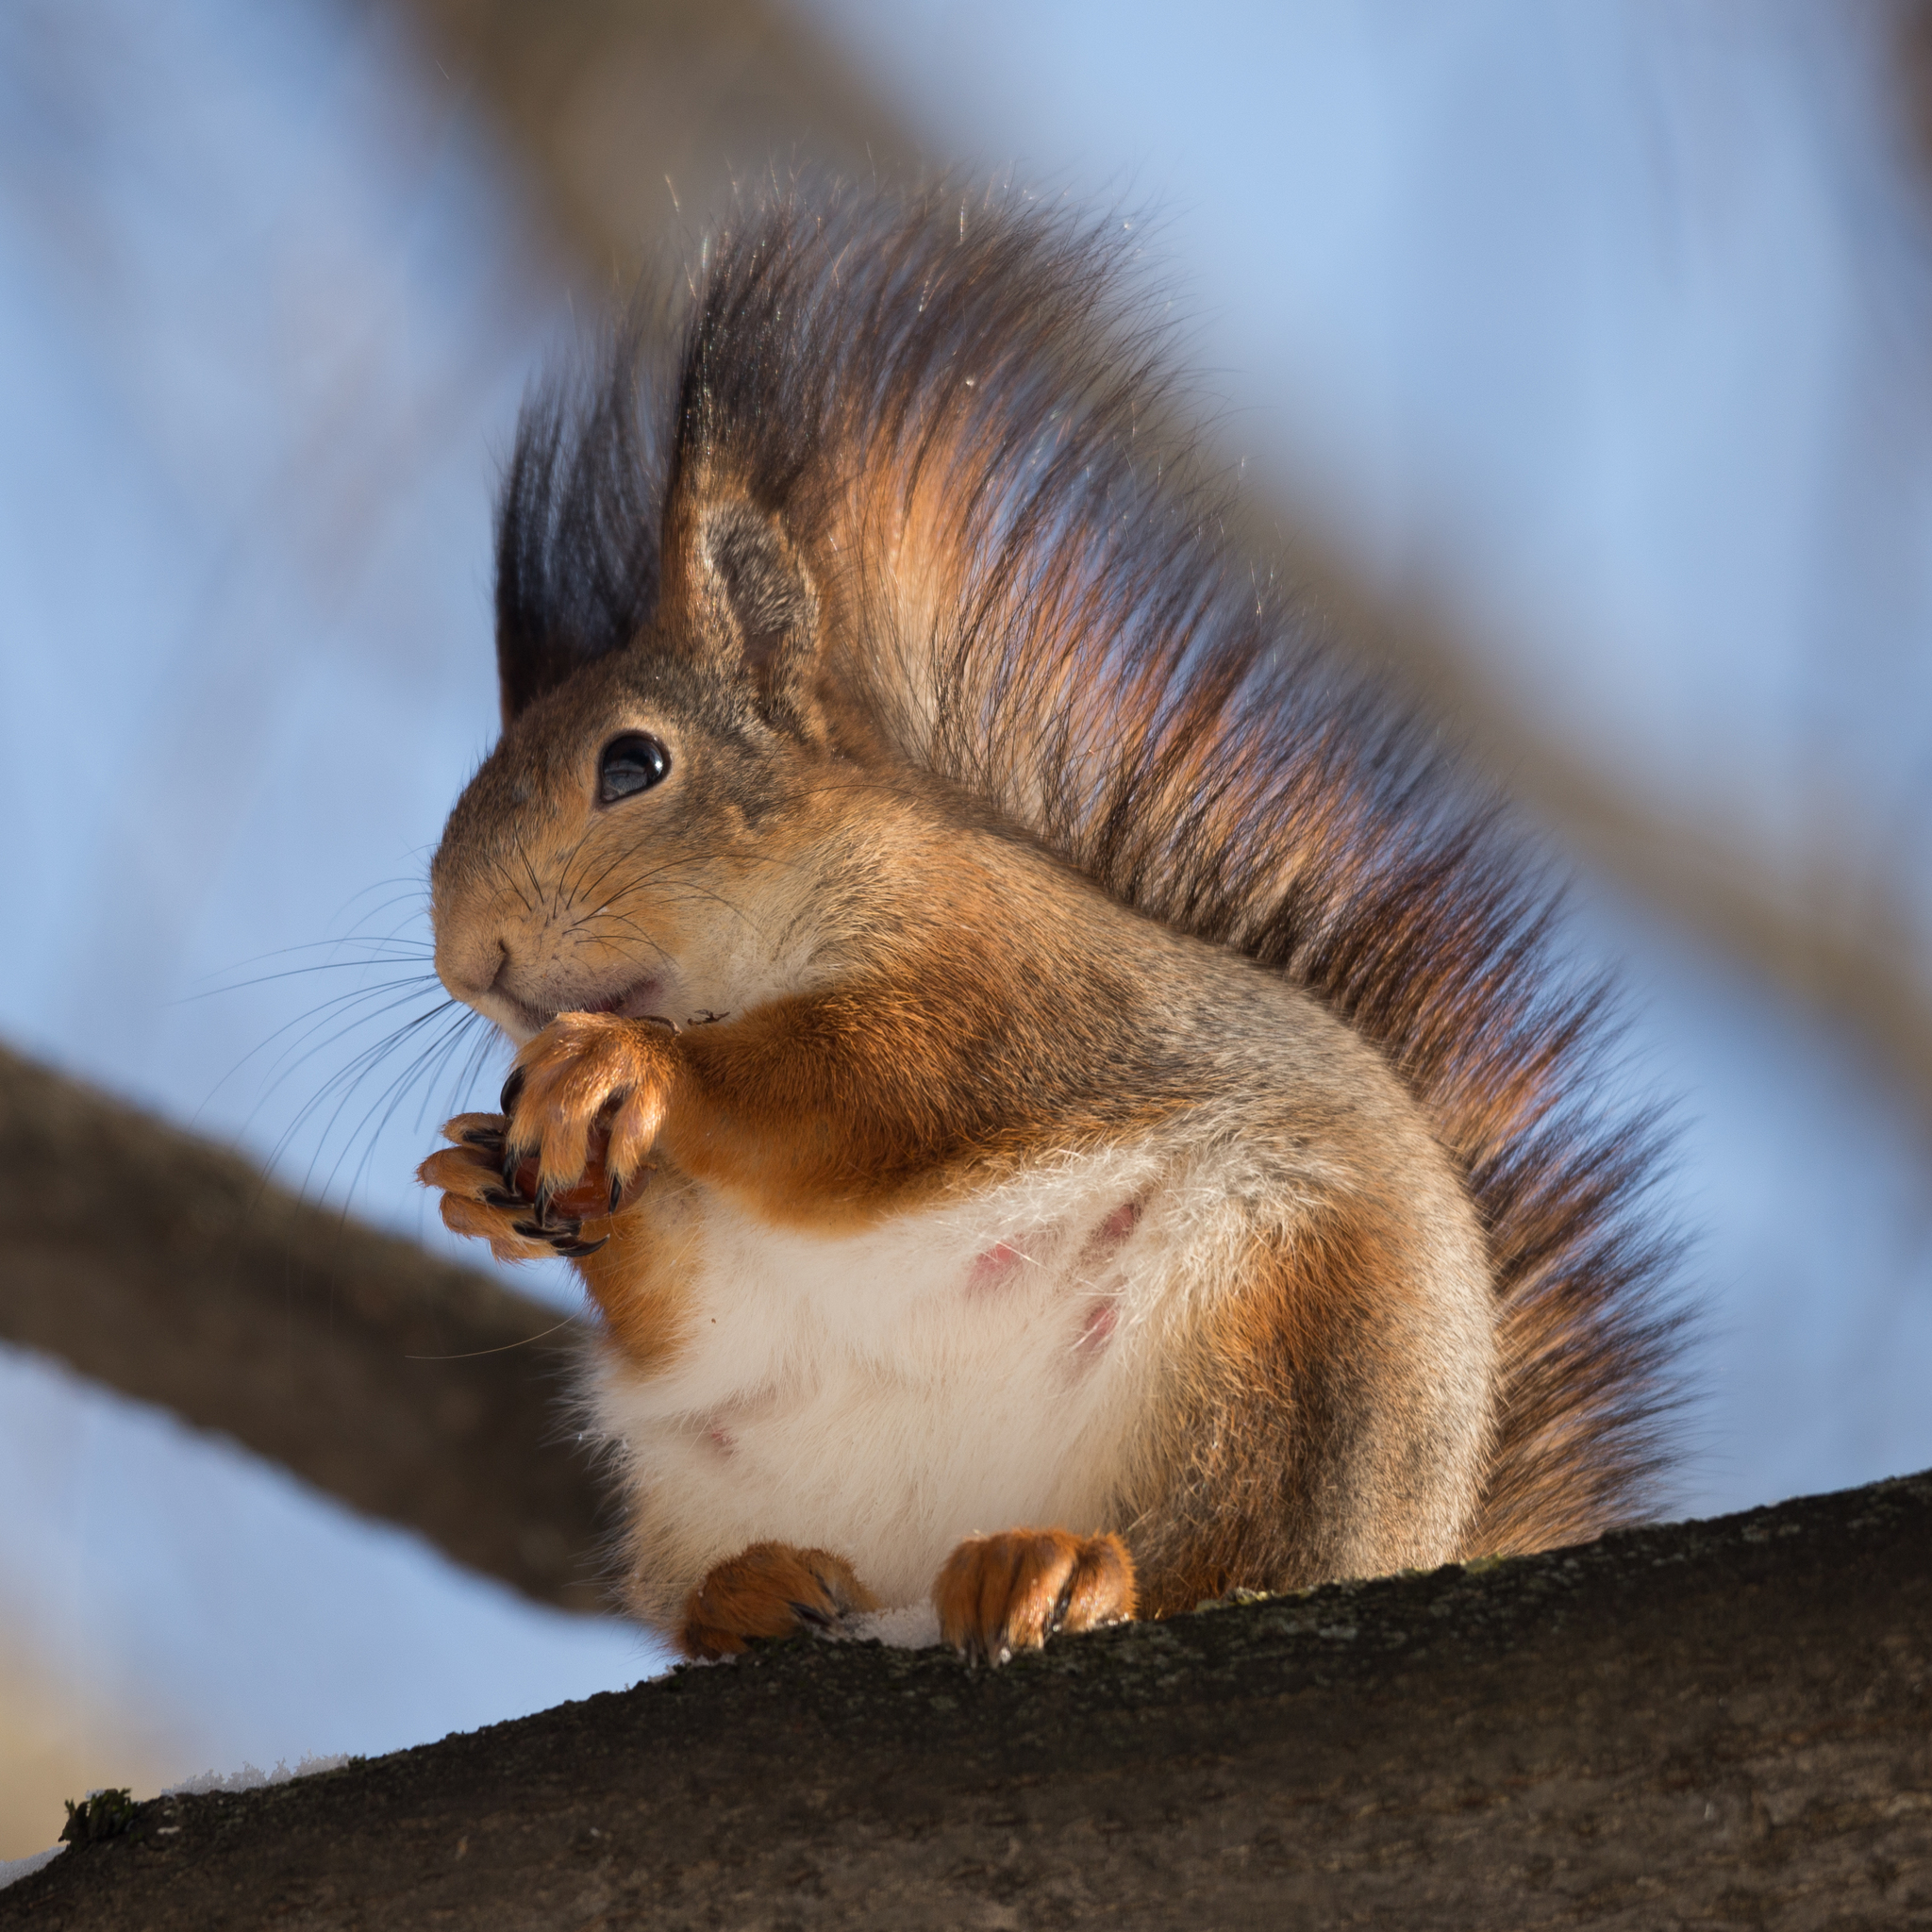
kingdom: Animalia
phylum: Chordata
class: Mammalia
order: Rodentia
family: Sciuridae
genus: Sciurus
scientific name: Sciurus vulgaris
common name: Eurasian red squirrel
